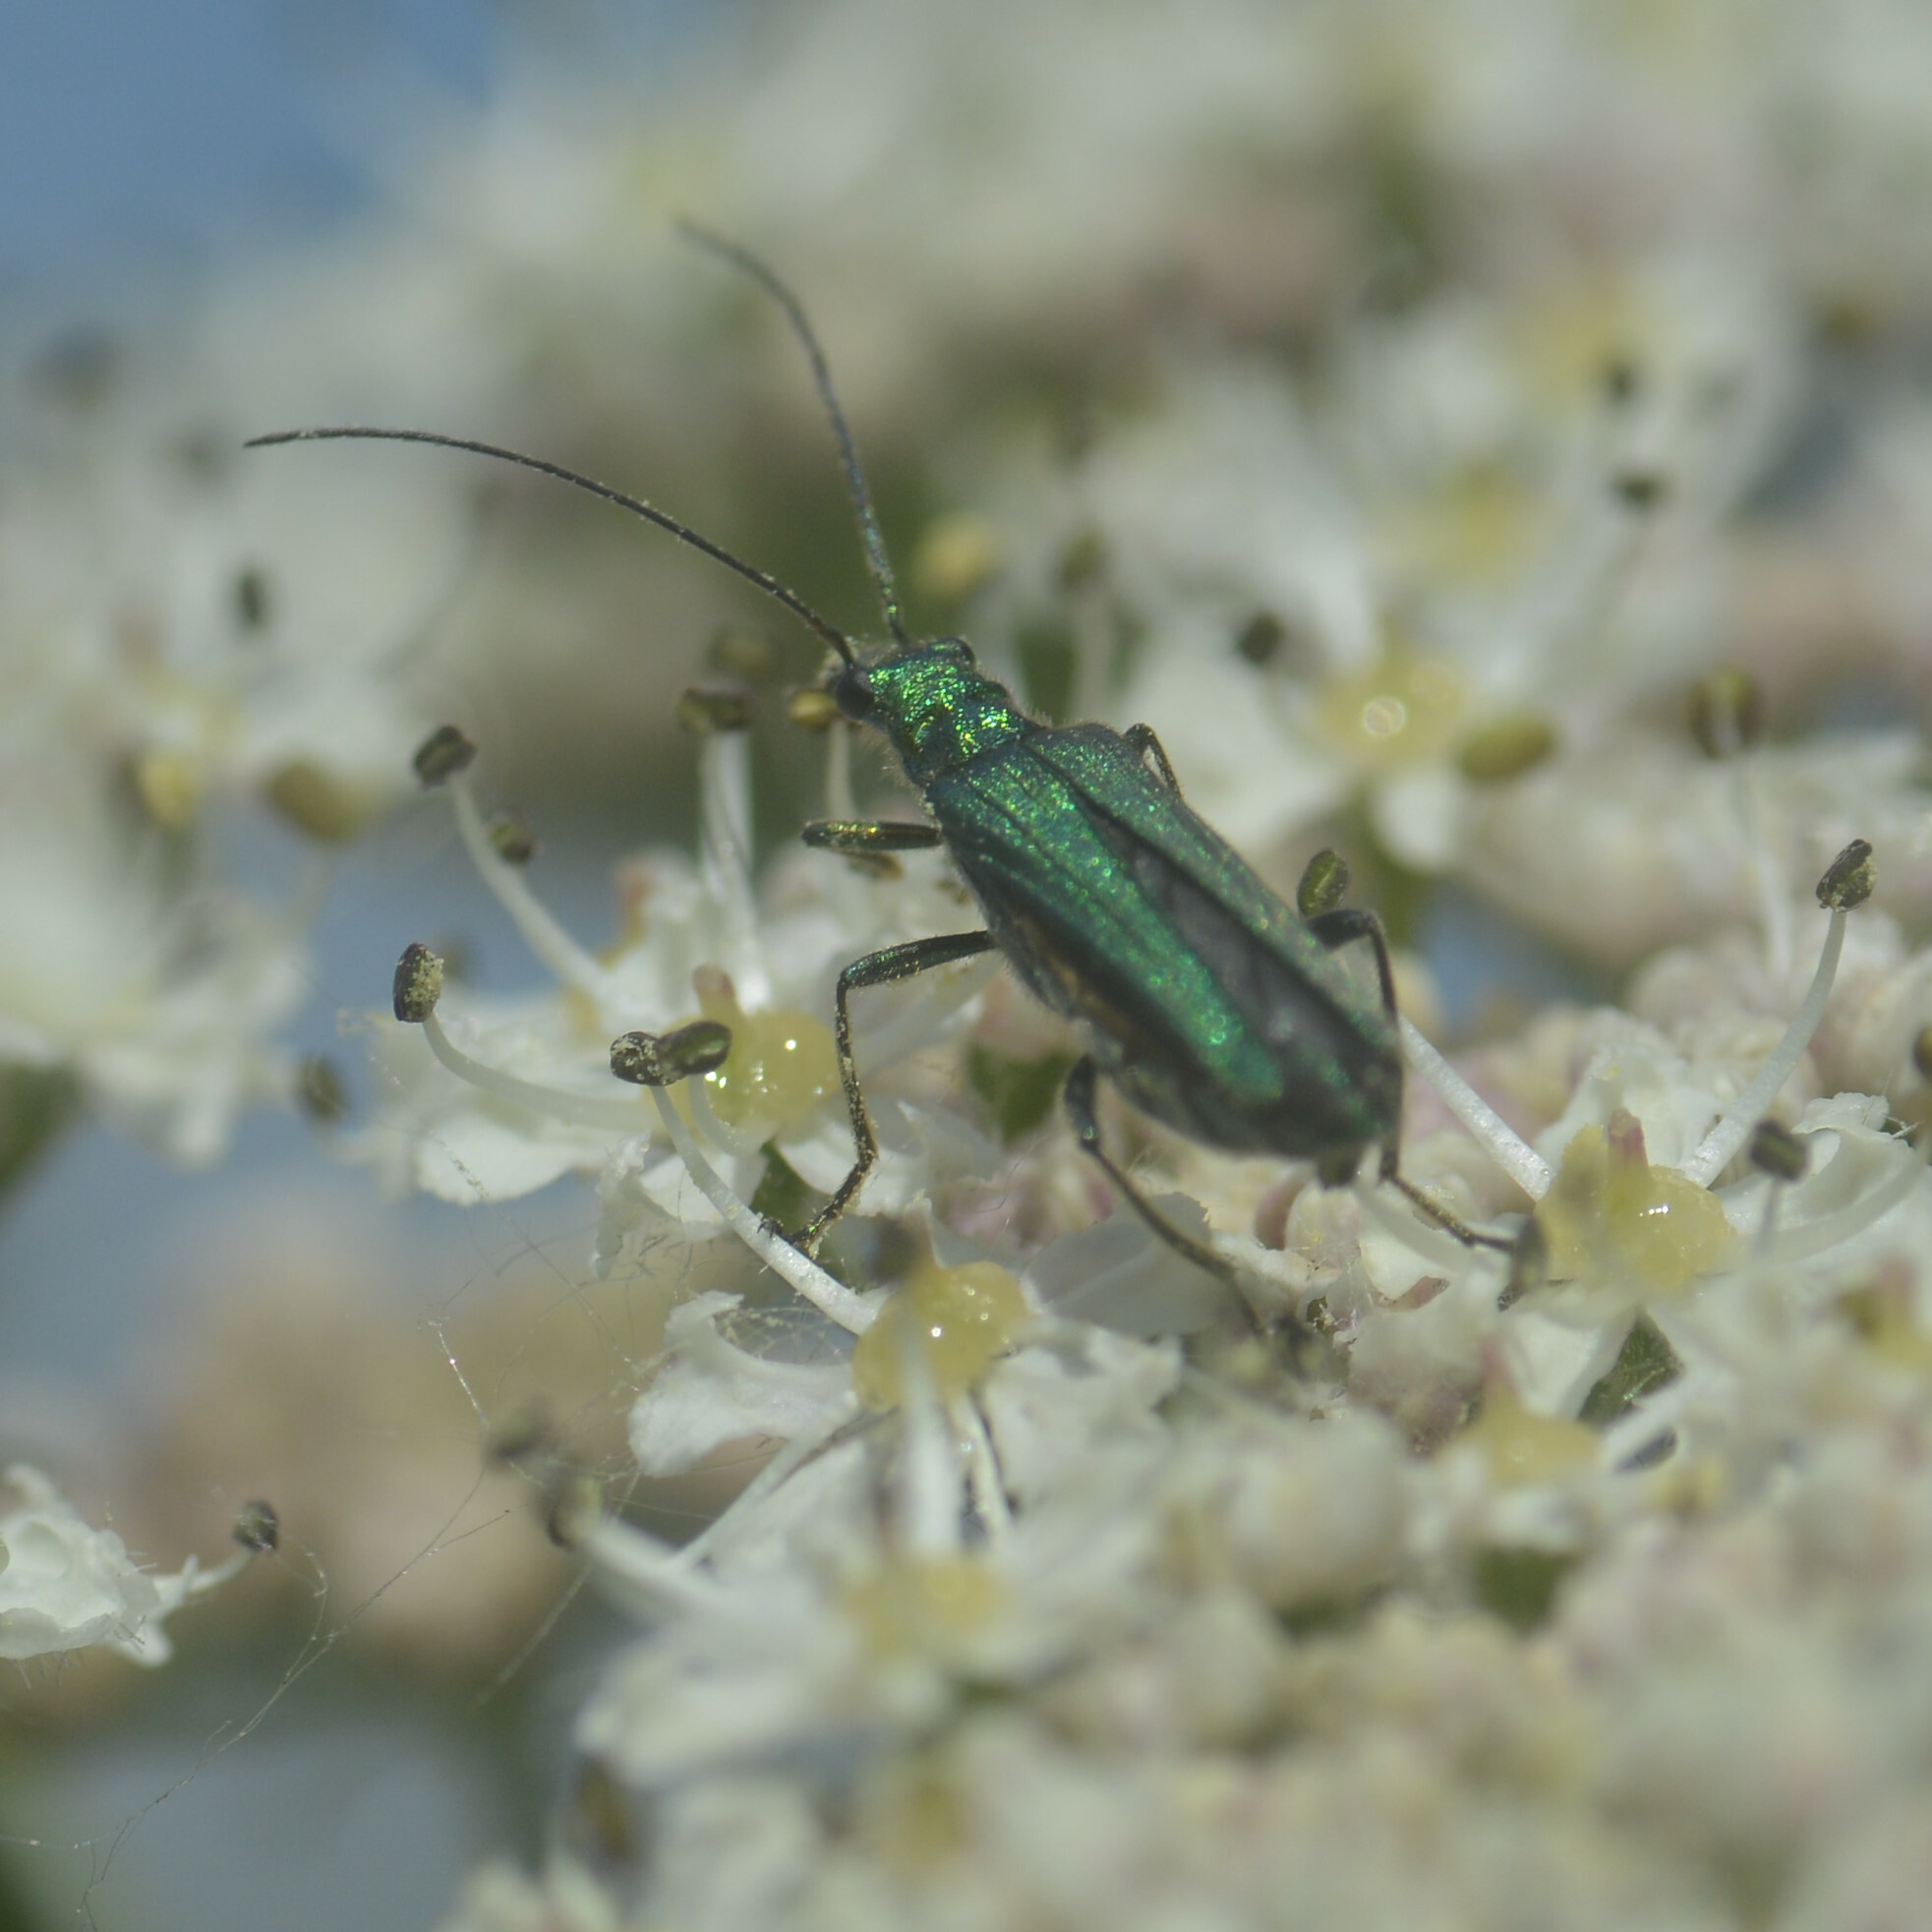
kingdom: Animalia
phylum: Arthropoda
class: Insecta
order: Coleoptera
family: Oedemeridae
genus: Oedemera
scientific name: Oedemera nobilis
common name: Swollen-thighed beetle
